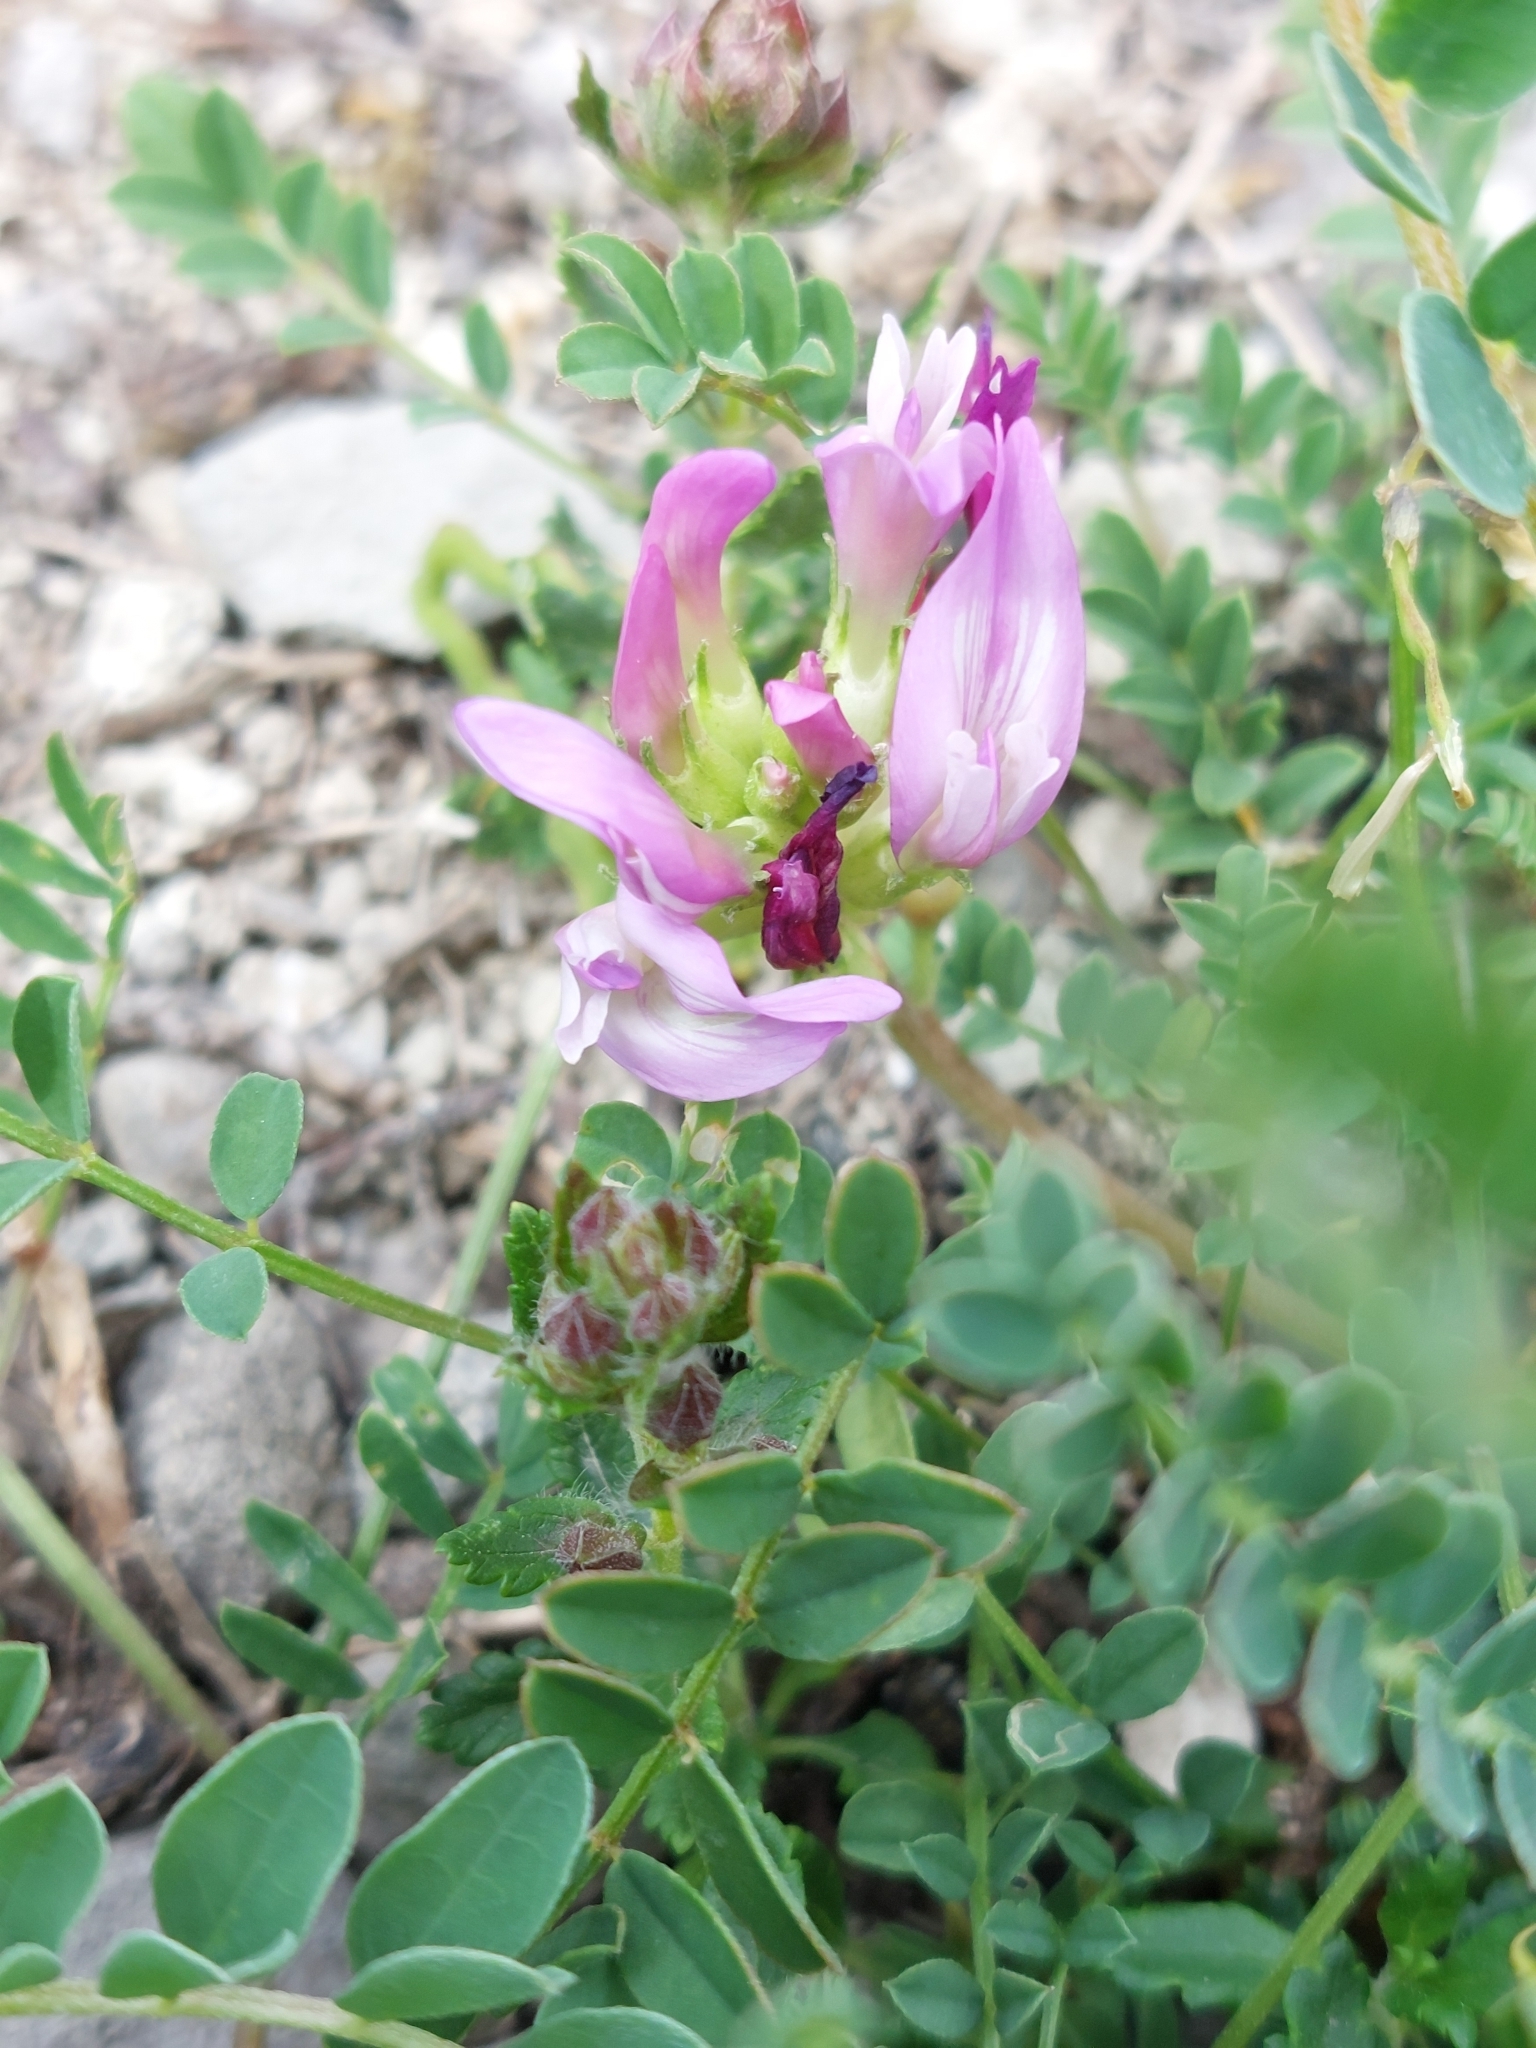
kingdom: Plantae
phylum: Tracheophyta
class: Magnoliopsida
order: Fabales
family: Fabaceae
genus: Astragalus
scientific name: Astragalus monspessulanus
